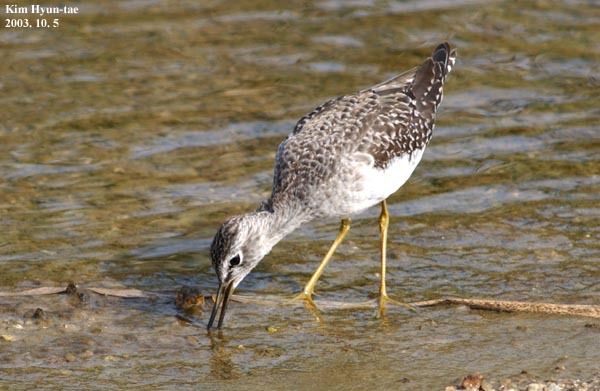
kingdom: Animalia
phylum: Chordata
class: Aves
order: Charadriiformes
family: Scolopacidae
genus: Tringa
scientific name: Tringa glareola
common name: Wood sandpiper
